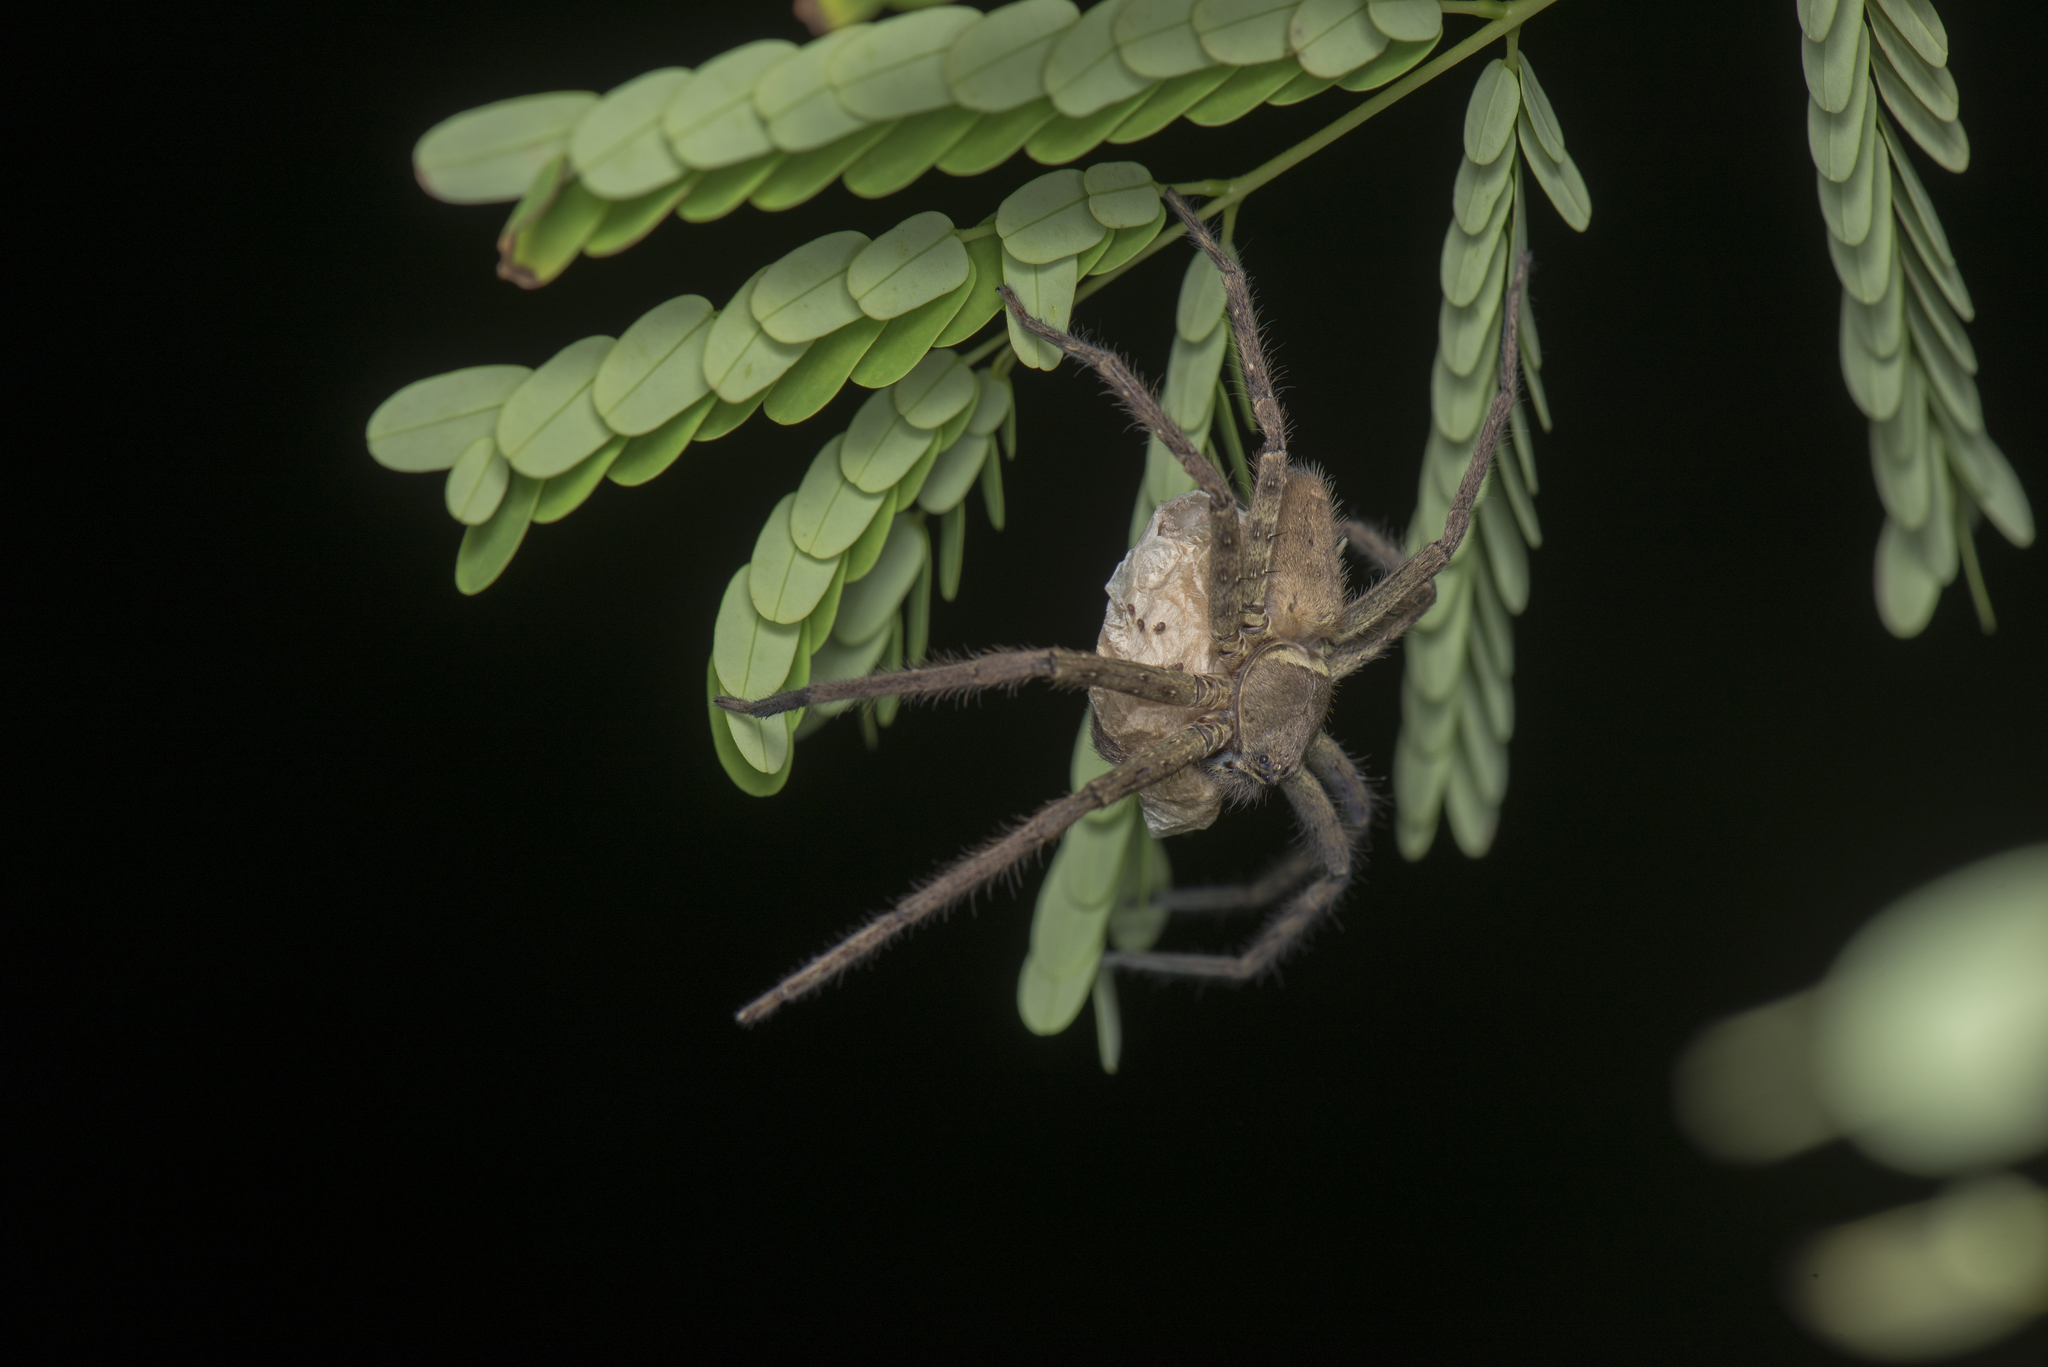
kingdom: Animalia
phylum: Arthropoda
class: Arachnida
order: Araneae
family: Sparassidae
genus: Heteropoda
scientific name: Heteropoda venatoria
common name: Huntsman spider
